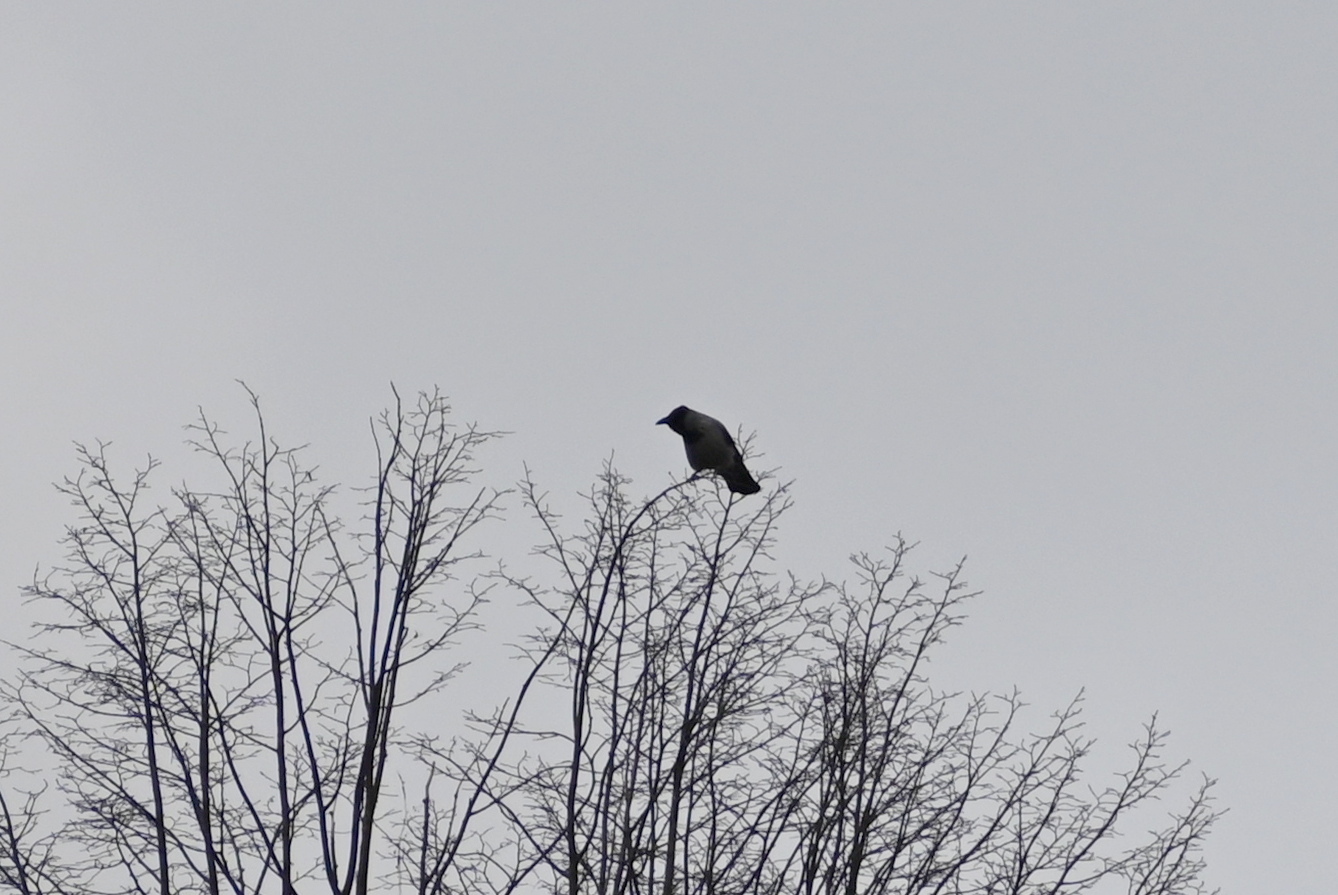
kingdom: Animalia
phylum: Chordata
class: Aves
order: Passeriformes
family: Corvidae
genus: Corvus
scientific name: Corvus cornix
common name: Hooded crow
